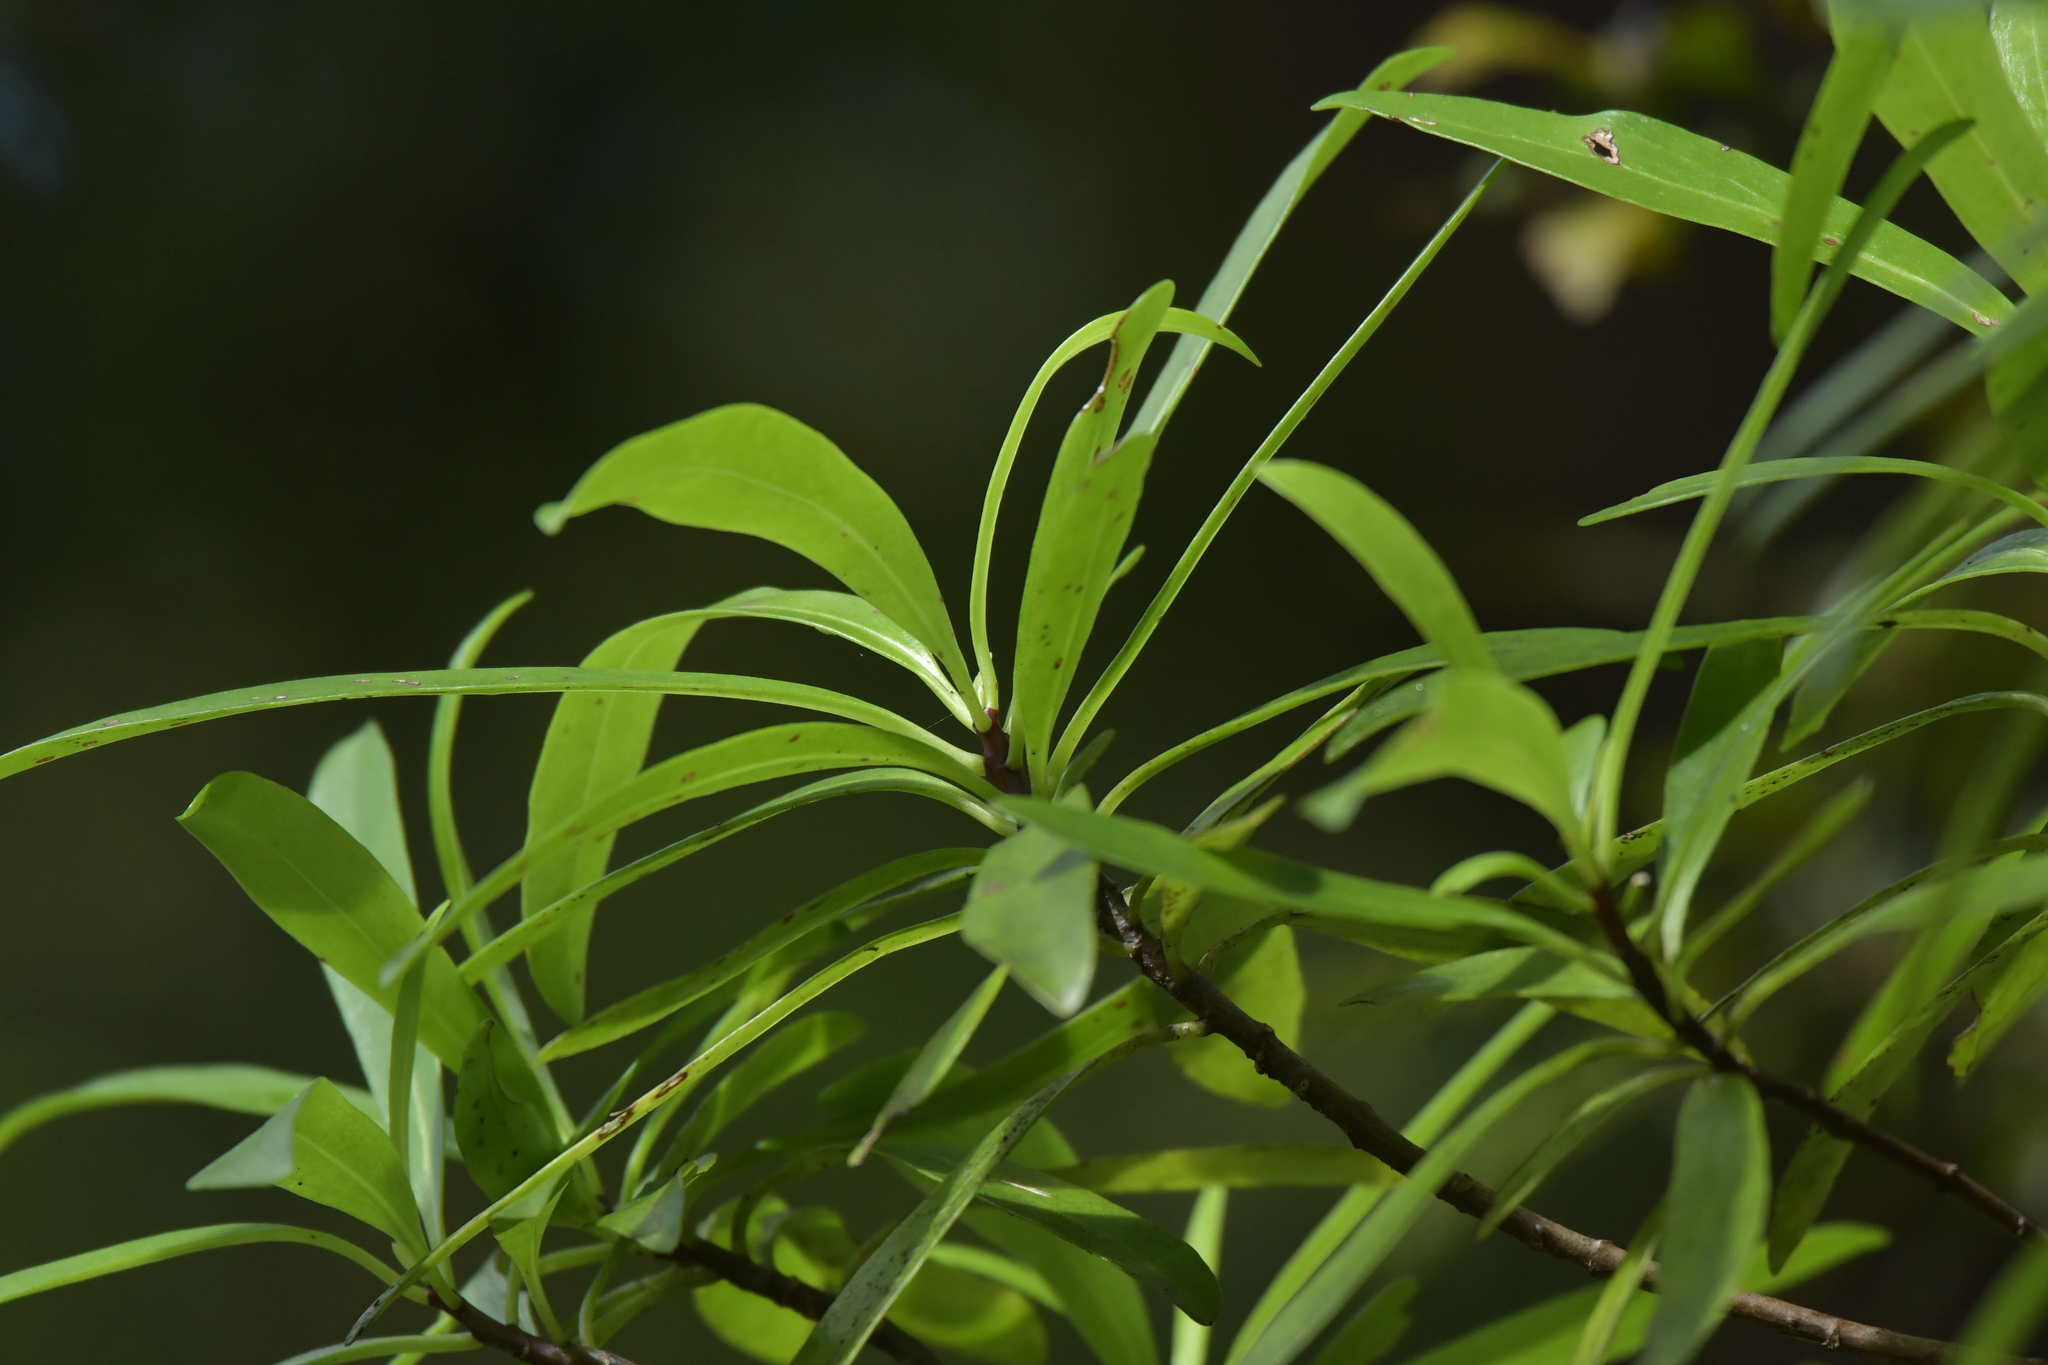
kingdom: Plantae
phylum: Tracheophyta
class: Magnoliopsida
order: Asterales
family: Asteraceae
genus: Brachyglottis
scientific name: Brachyglottis kirkii
